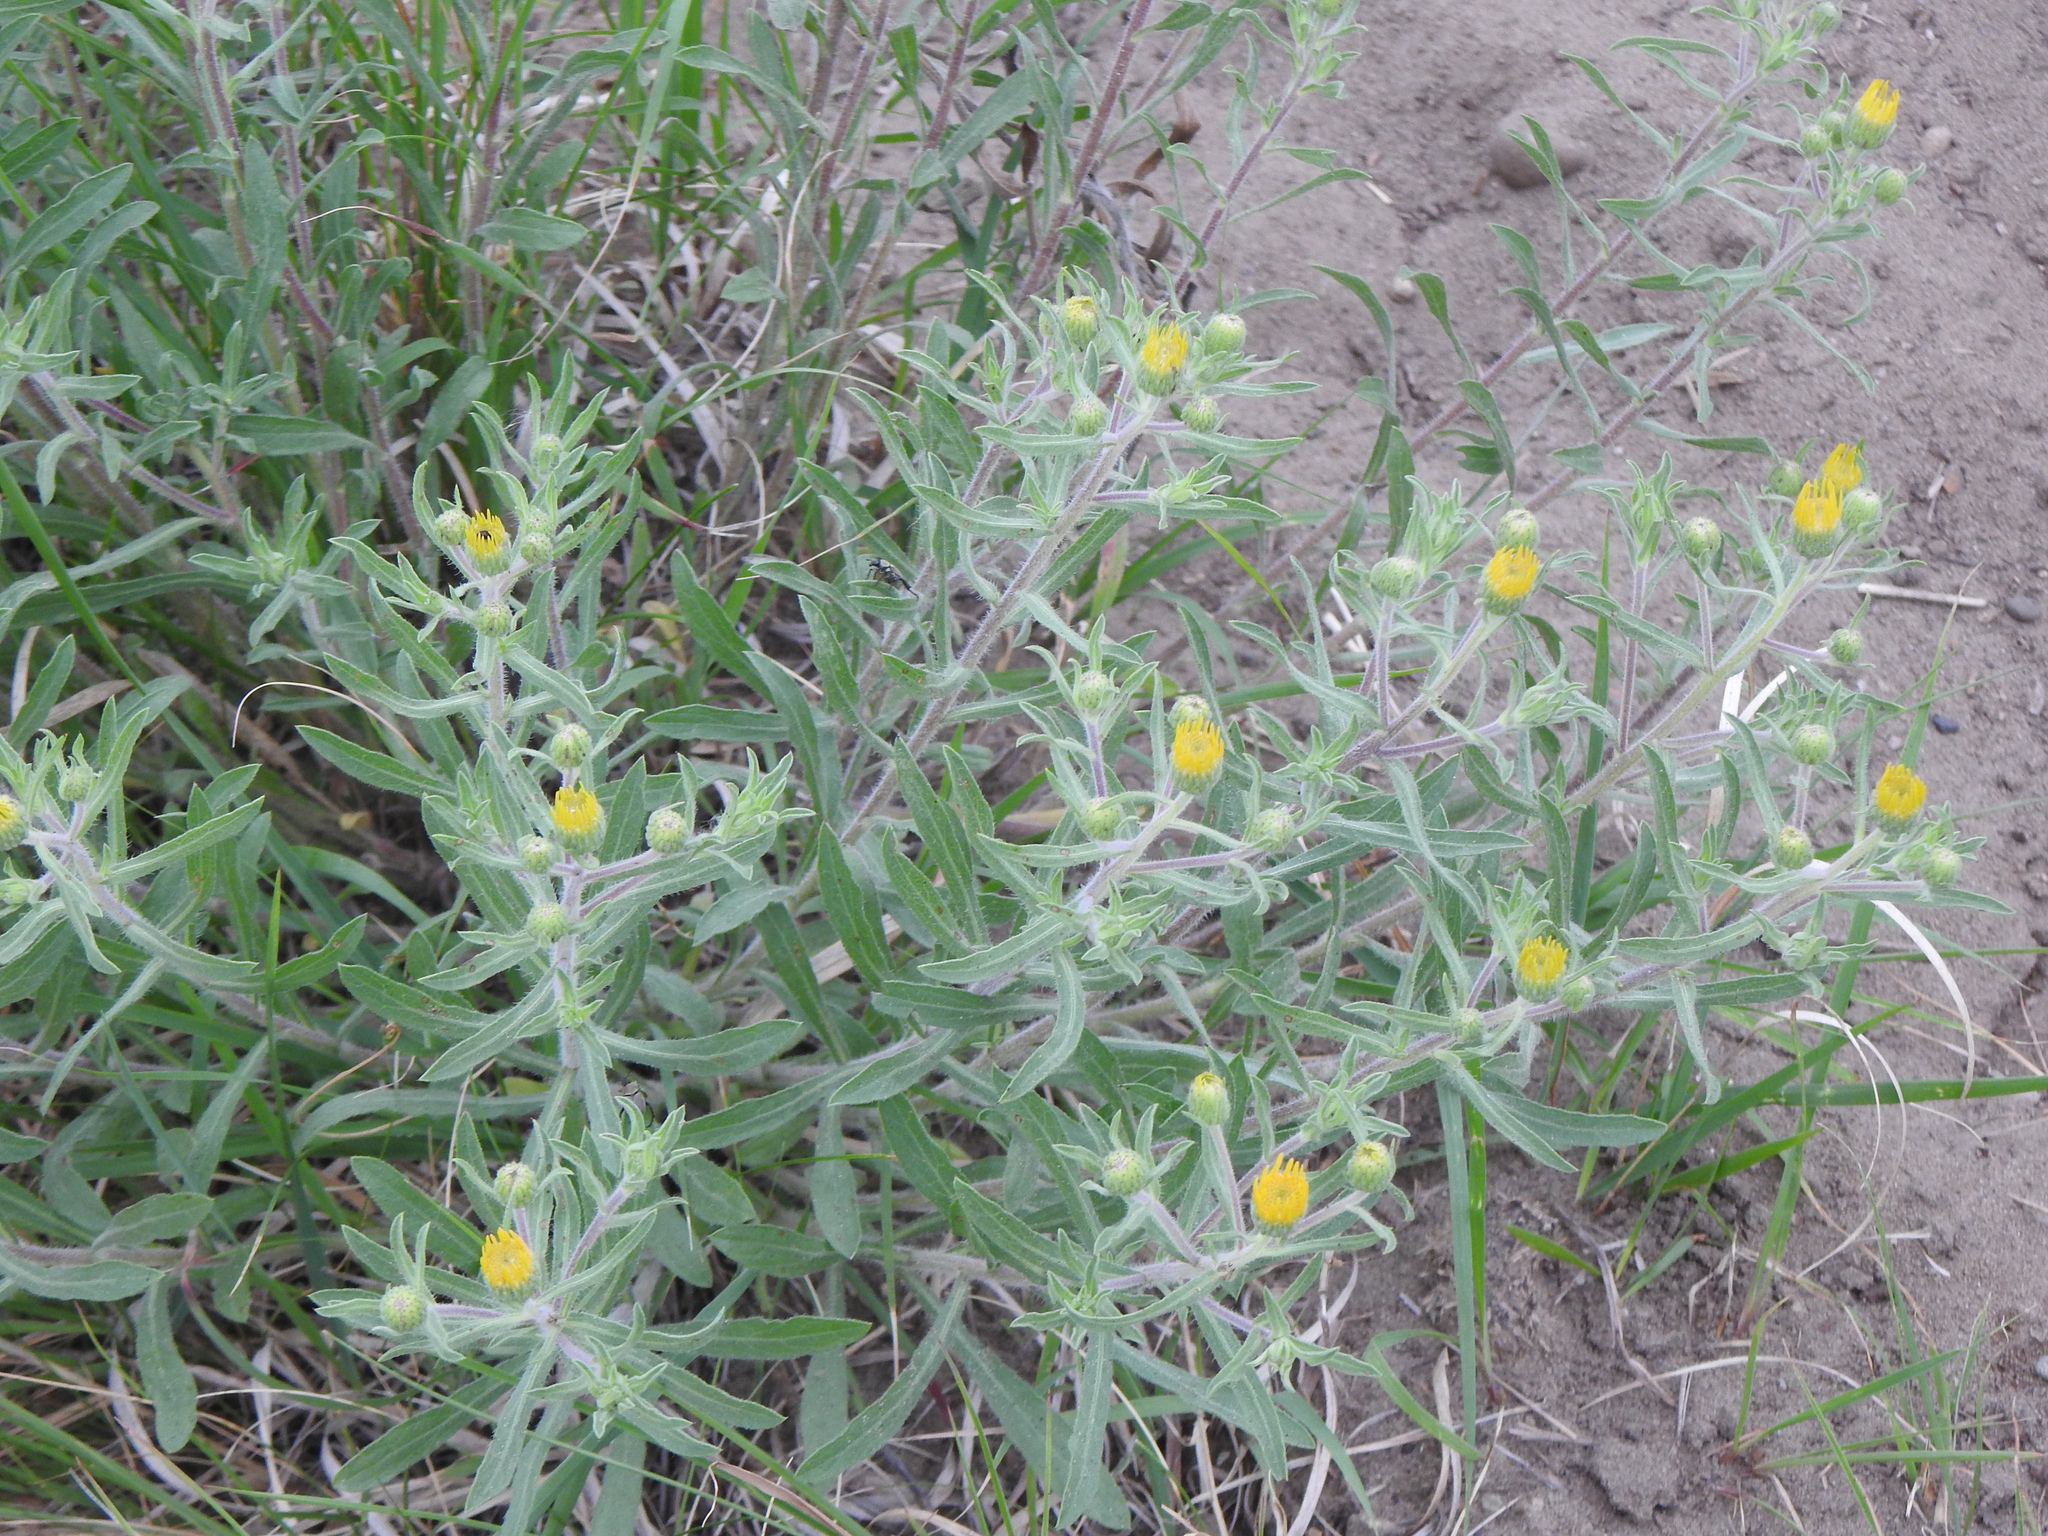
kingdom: Plantae
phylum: Tracheophyta
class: Magnoliopsida
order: Asterales
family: Asteraceae
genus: Heterotheca
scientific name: Heterotheca villosa
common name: Hairy false goldenaster
